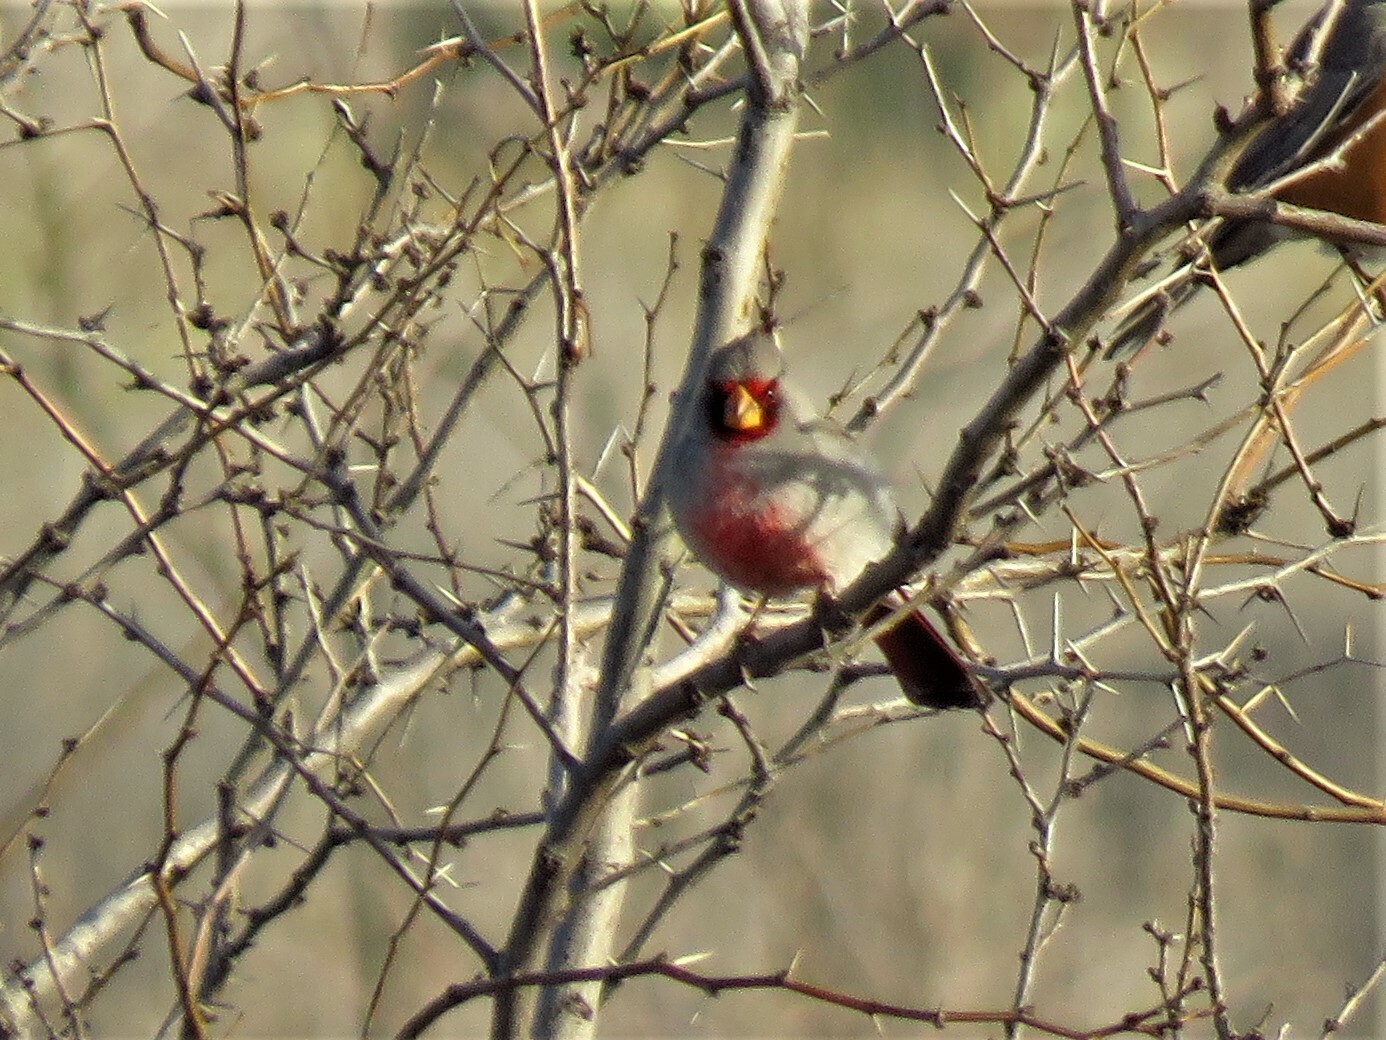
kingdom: Animalia
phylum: Chordata
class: Aves
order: Passeriformes
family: Cardinalidae
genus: Cardinalis
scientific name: Cardinalis sinuatus
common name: Pyrrhuloxia
